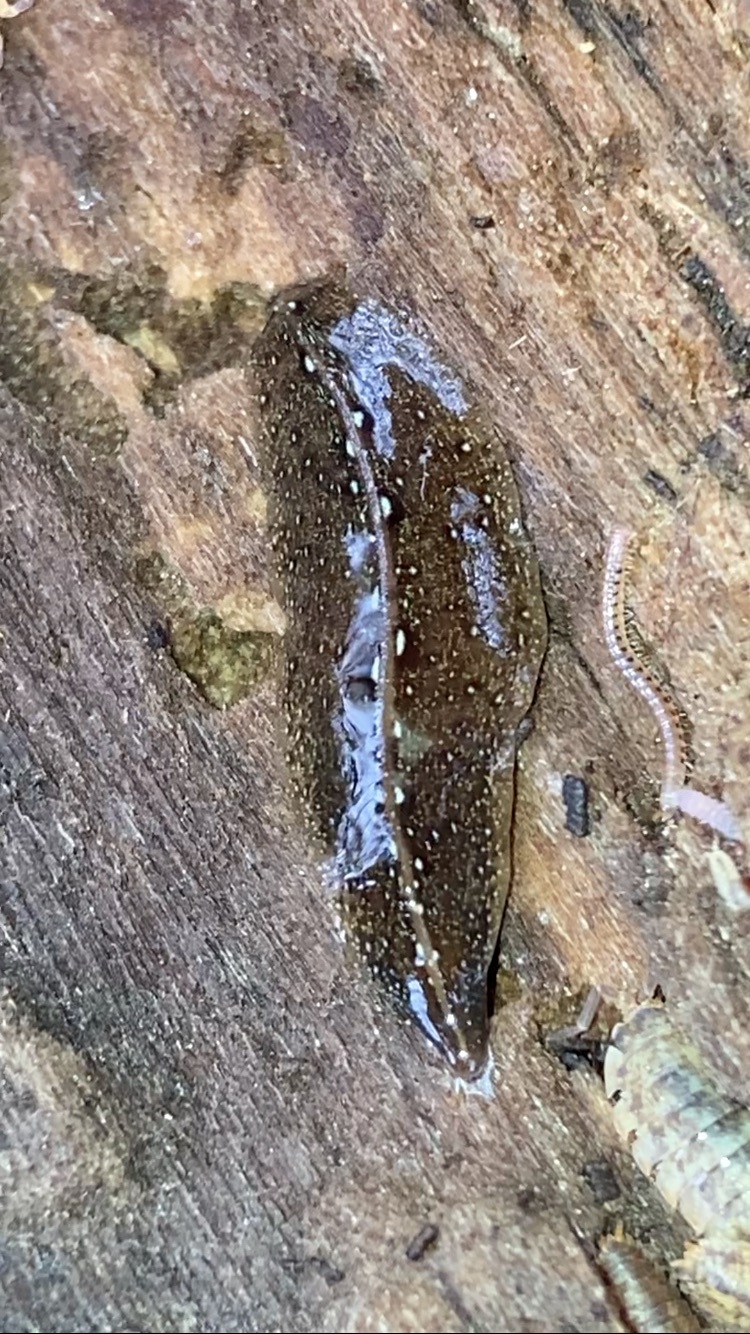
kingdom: Animalia
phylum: Platyhelminthes
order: Tricladida
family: Geoplanidae
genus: Newzealandia
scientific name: Newzealandia graffii
